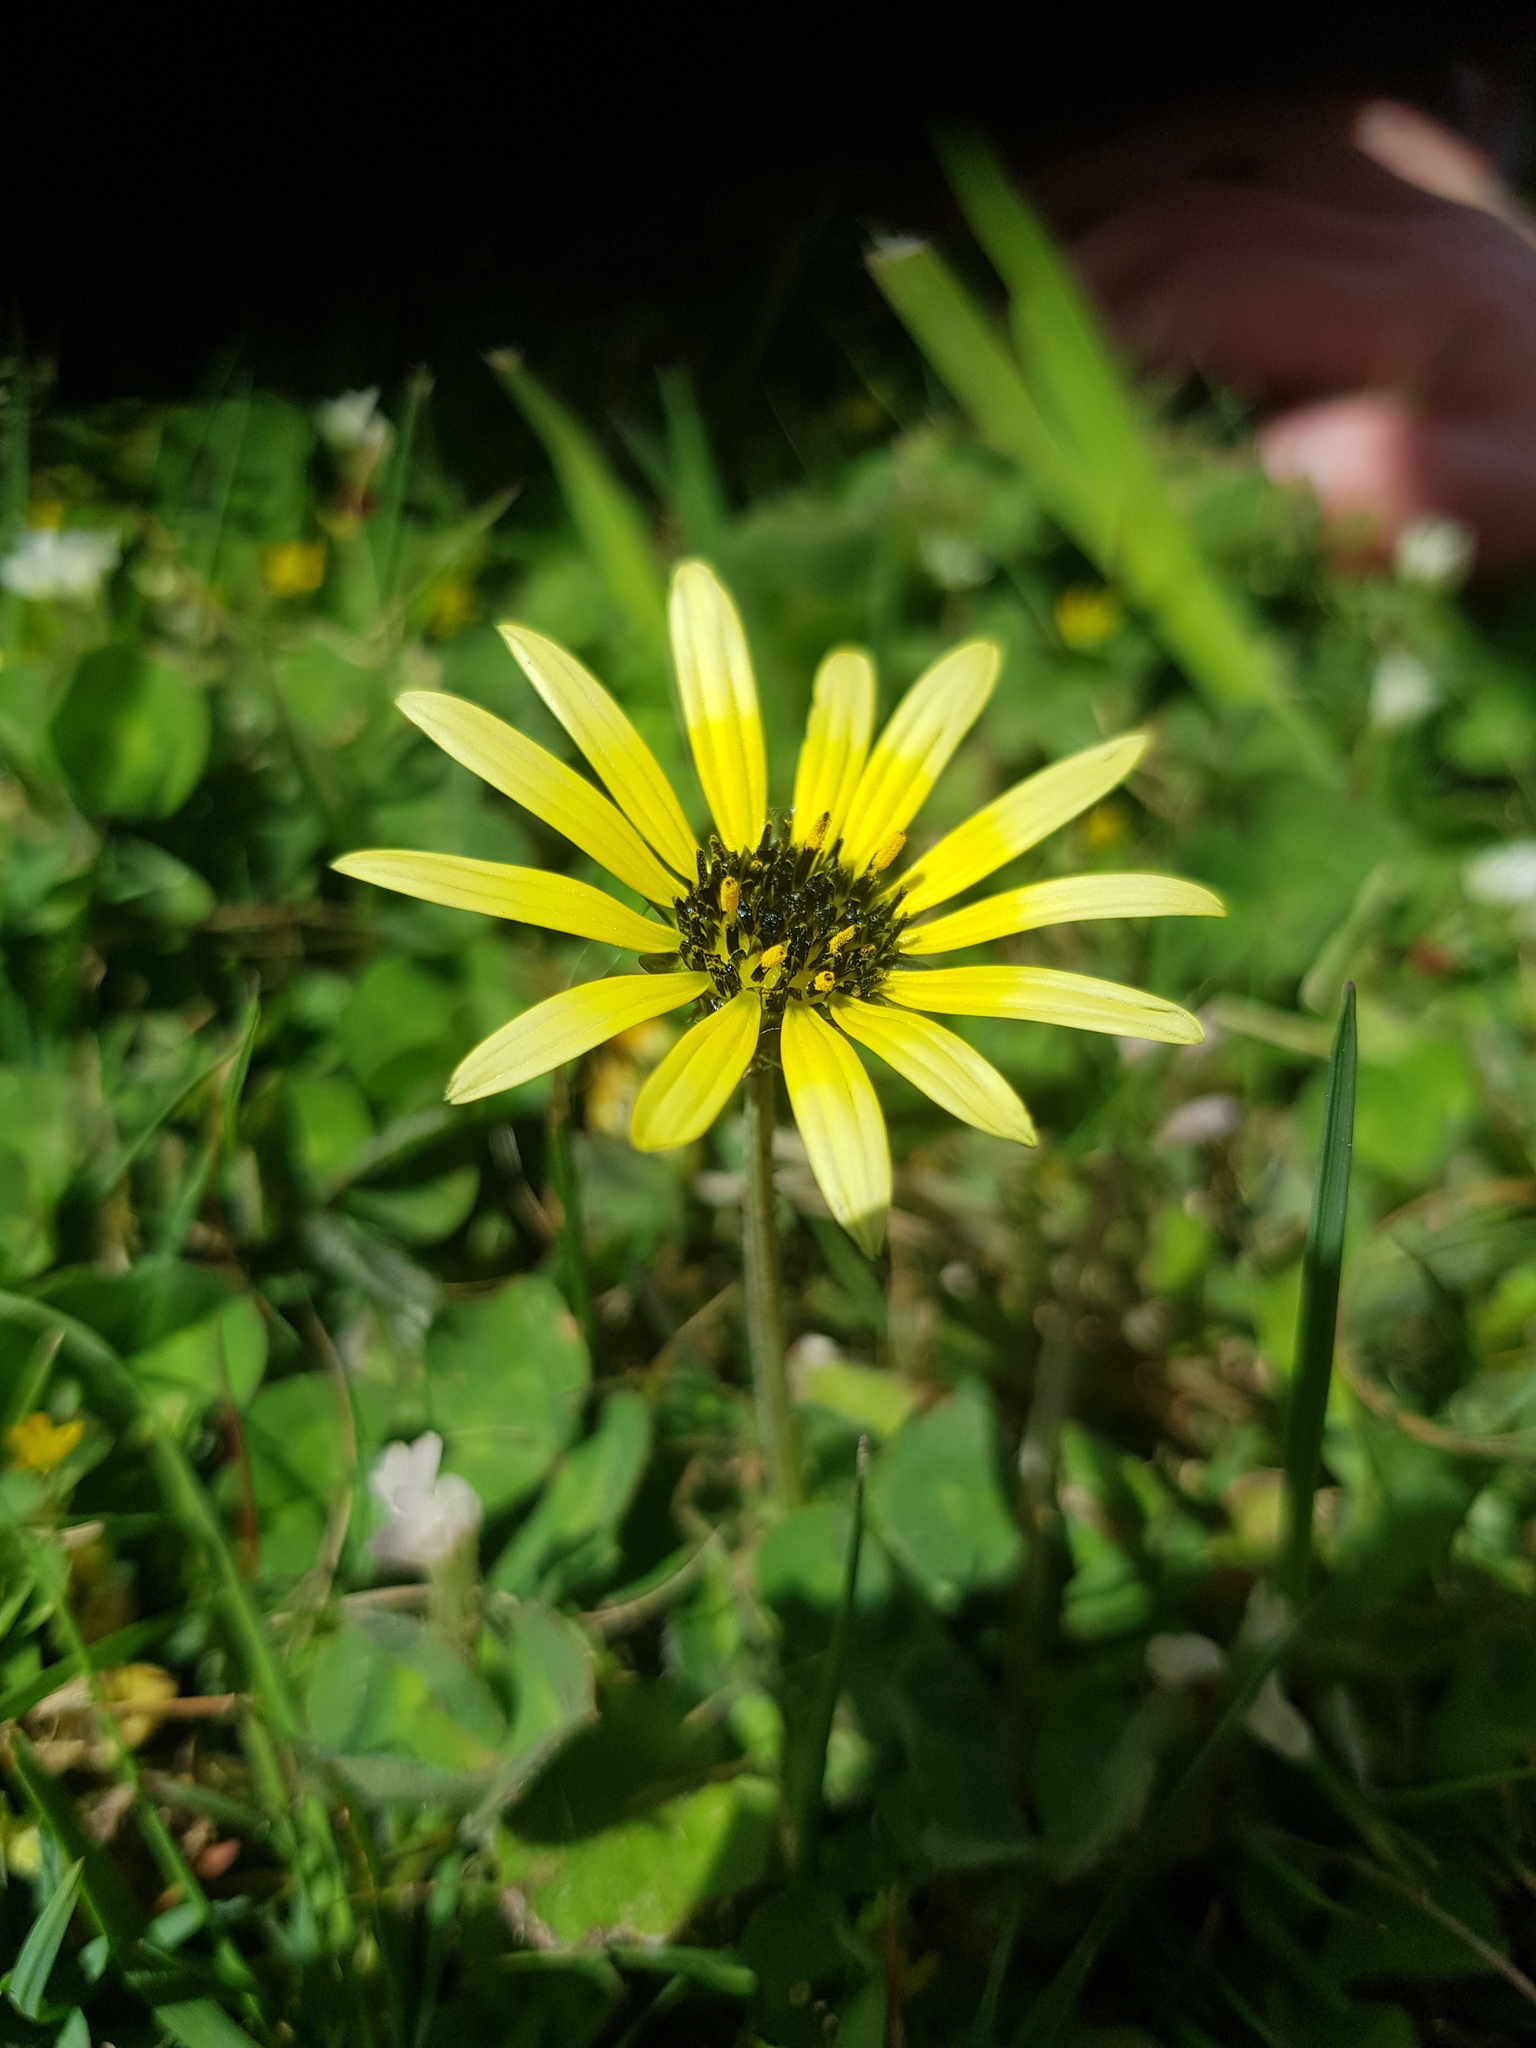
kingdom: Plantae
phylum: Tracheophyta
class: Magnoliopsida
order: Asterales
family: Asteraceae
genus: Arctotheca
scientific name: Arctotheca calendula
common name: Capeweed
